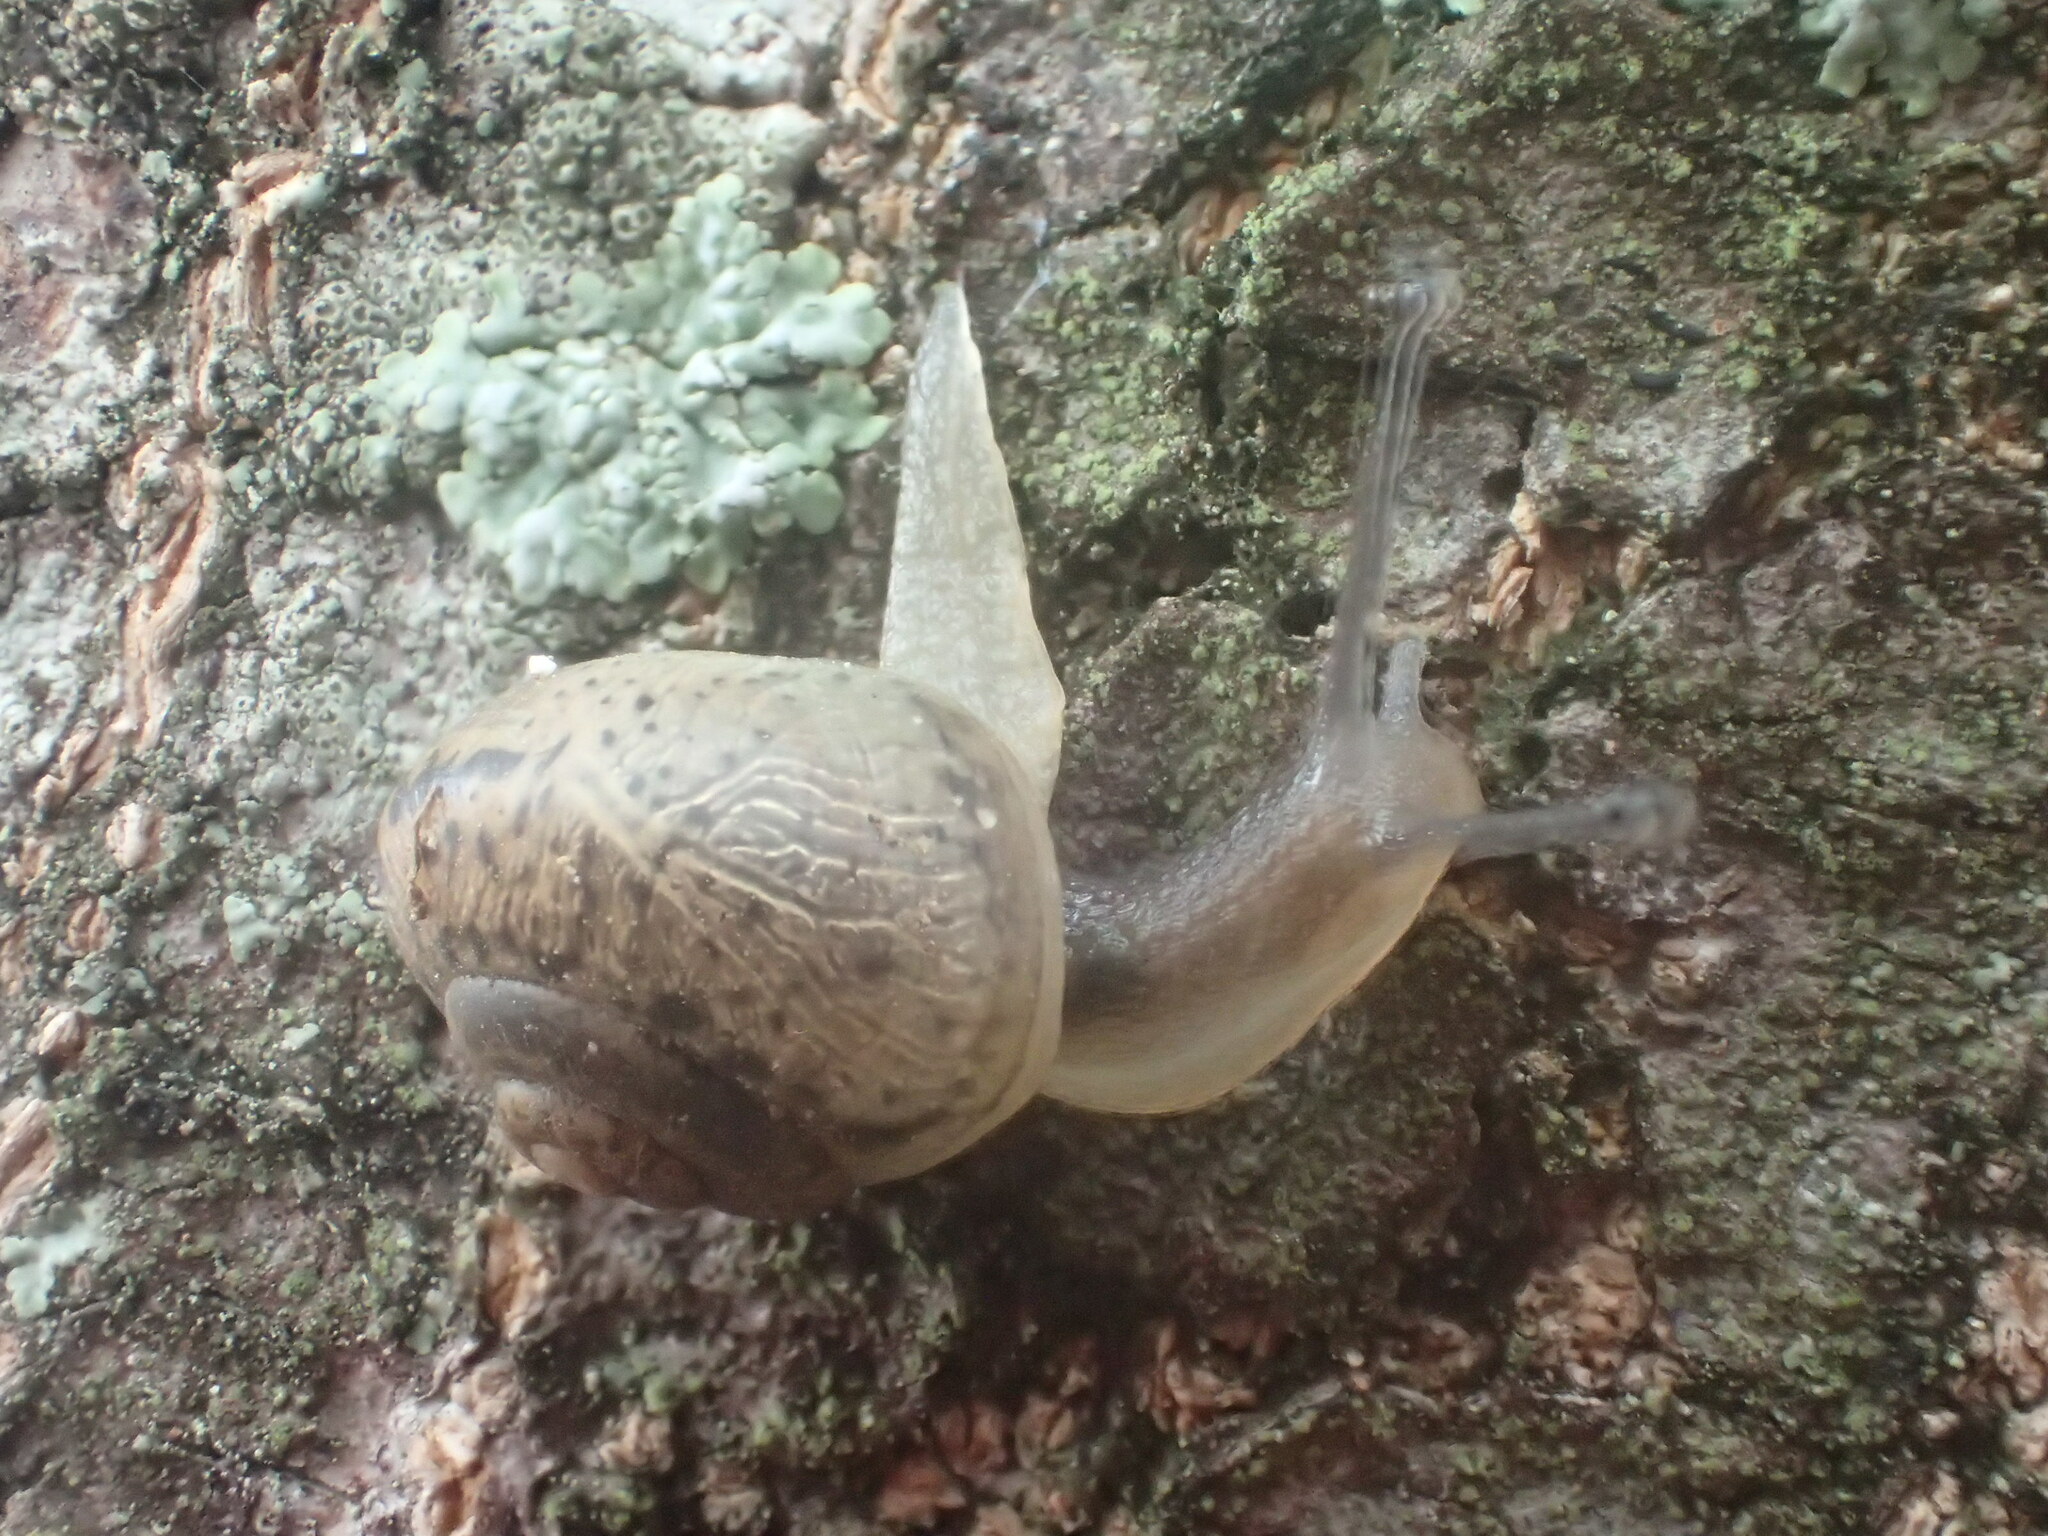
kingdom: Animalia
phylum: Mollusca
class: Gastropoda
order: Stylommatophora
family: Camaenidae
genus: Acusta
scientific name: Acusta despecta
